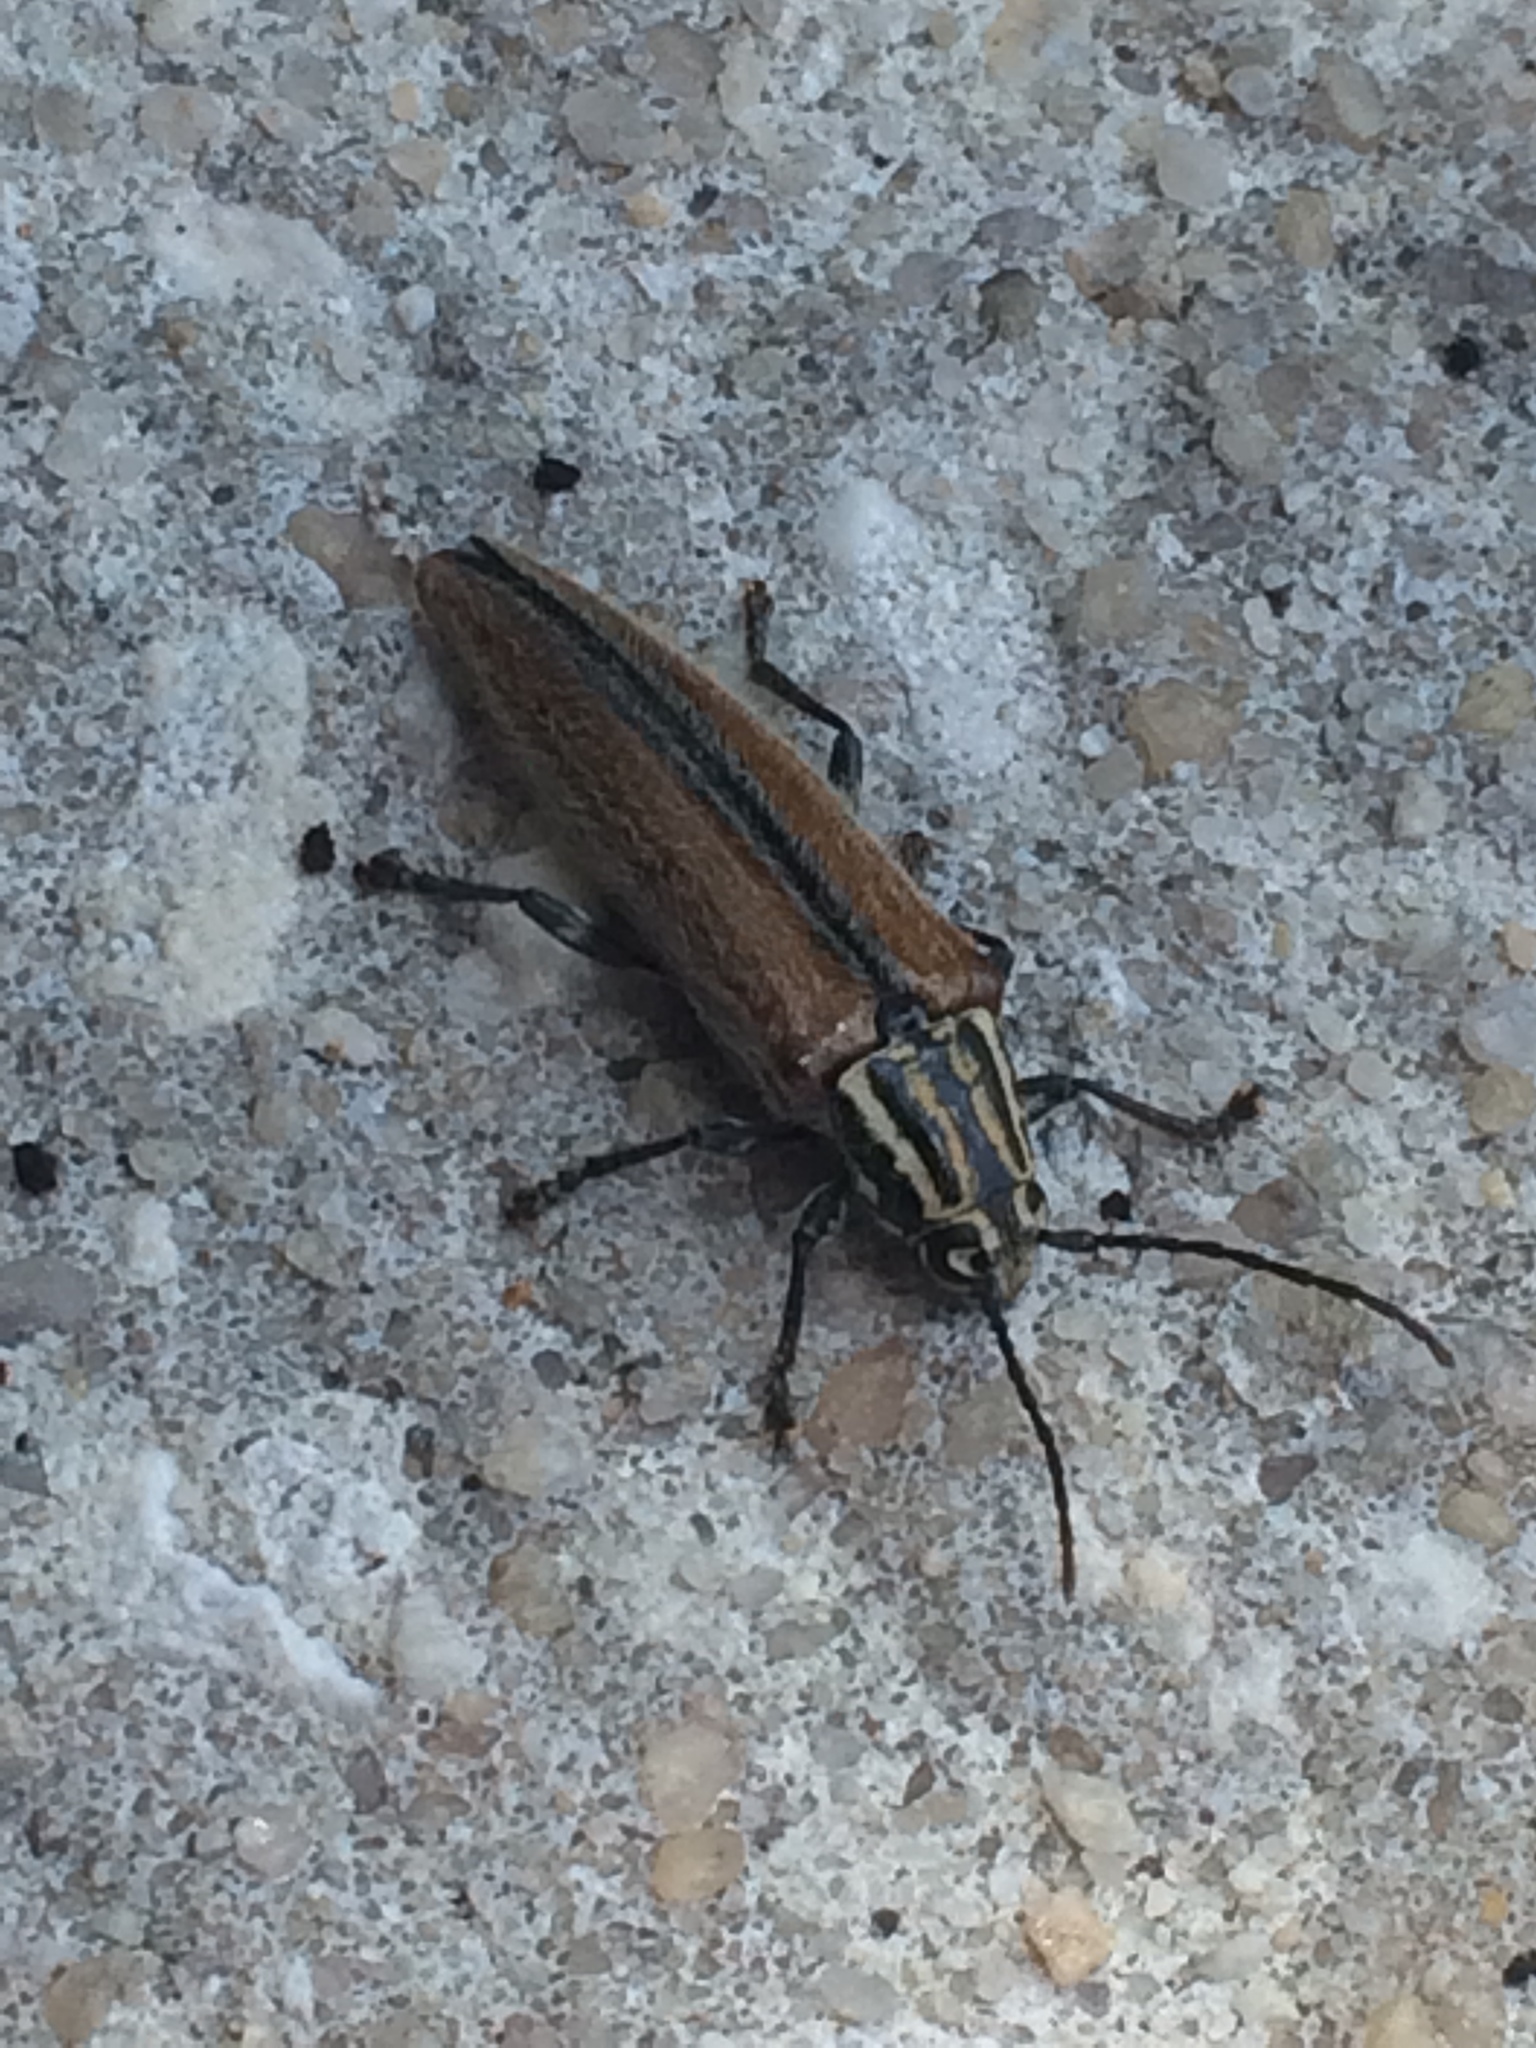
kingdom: Animalia
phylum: Arthropoda
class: Insecta
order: Coleoptera
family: Cerambycidae
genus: Osmopleura
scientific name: Osmopleura chamaeropis
